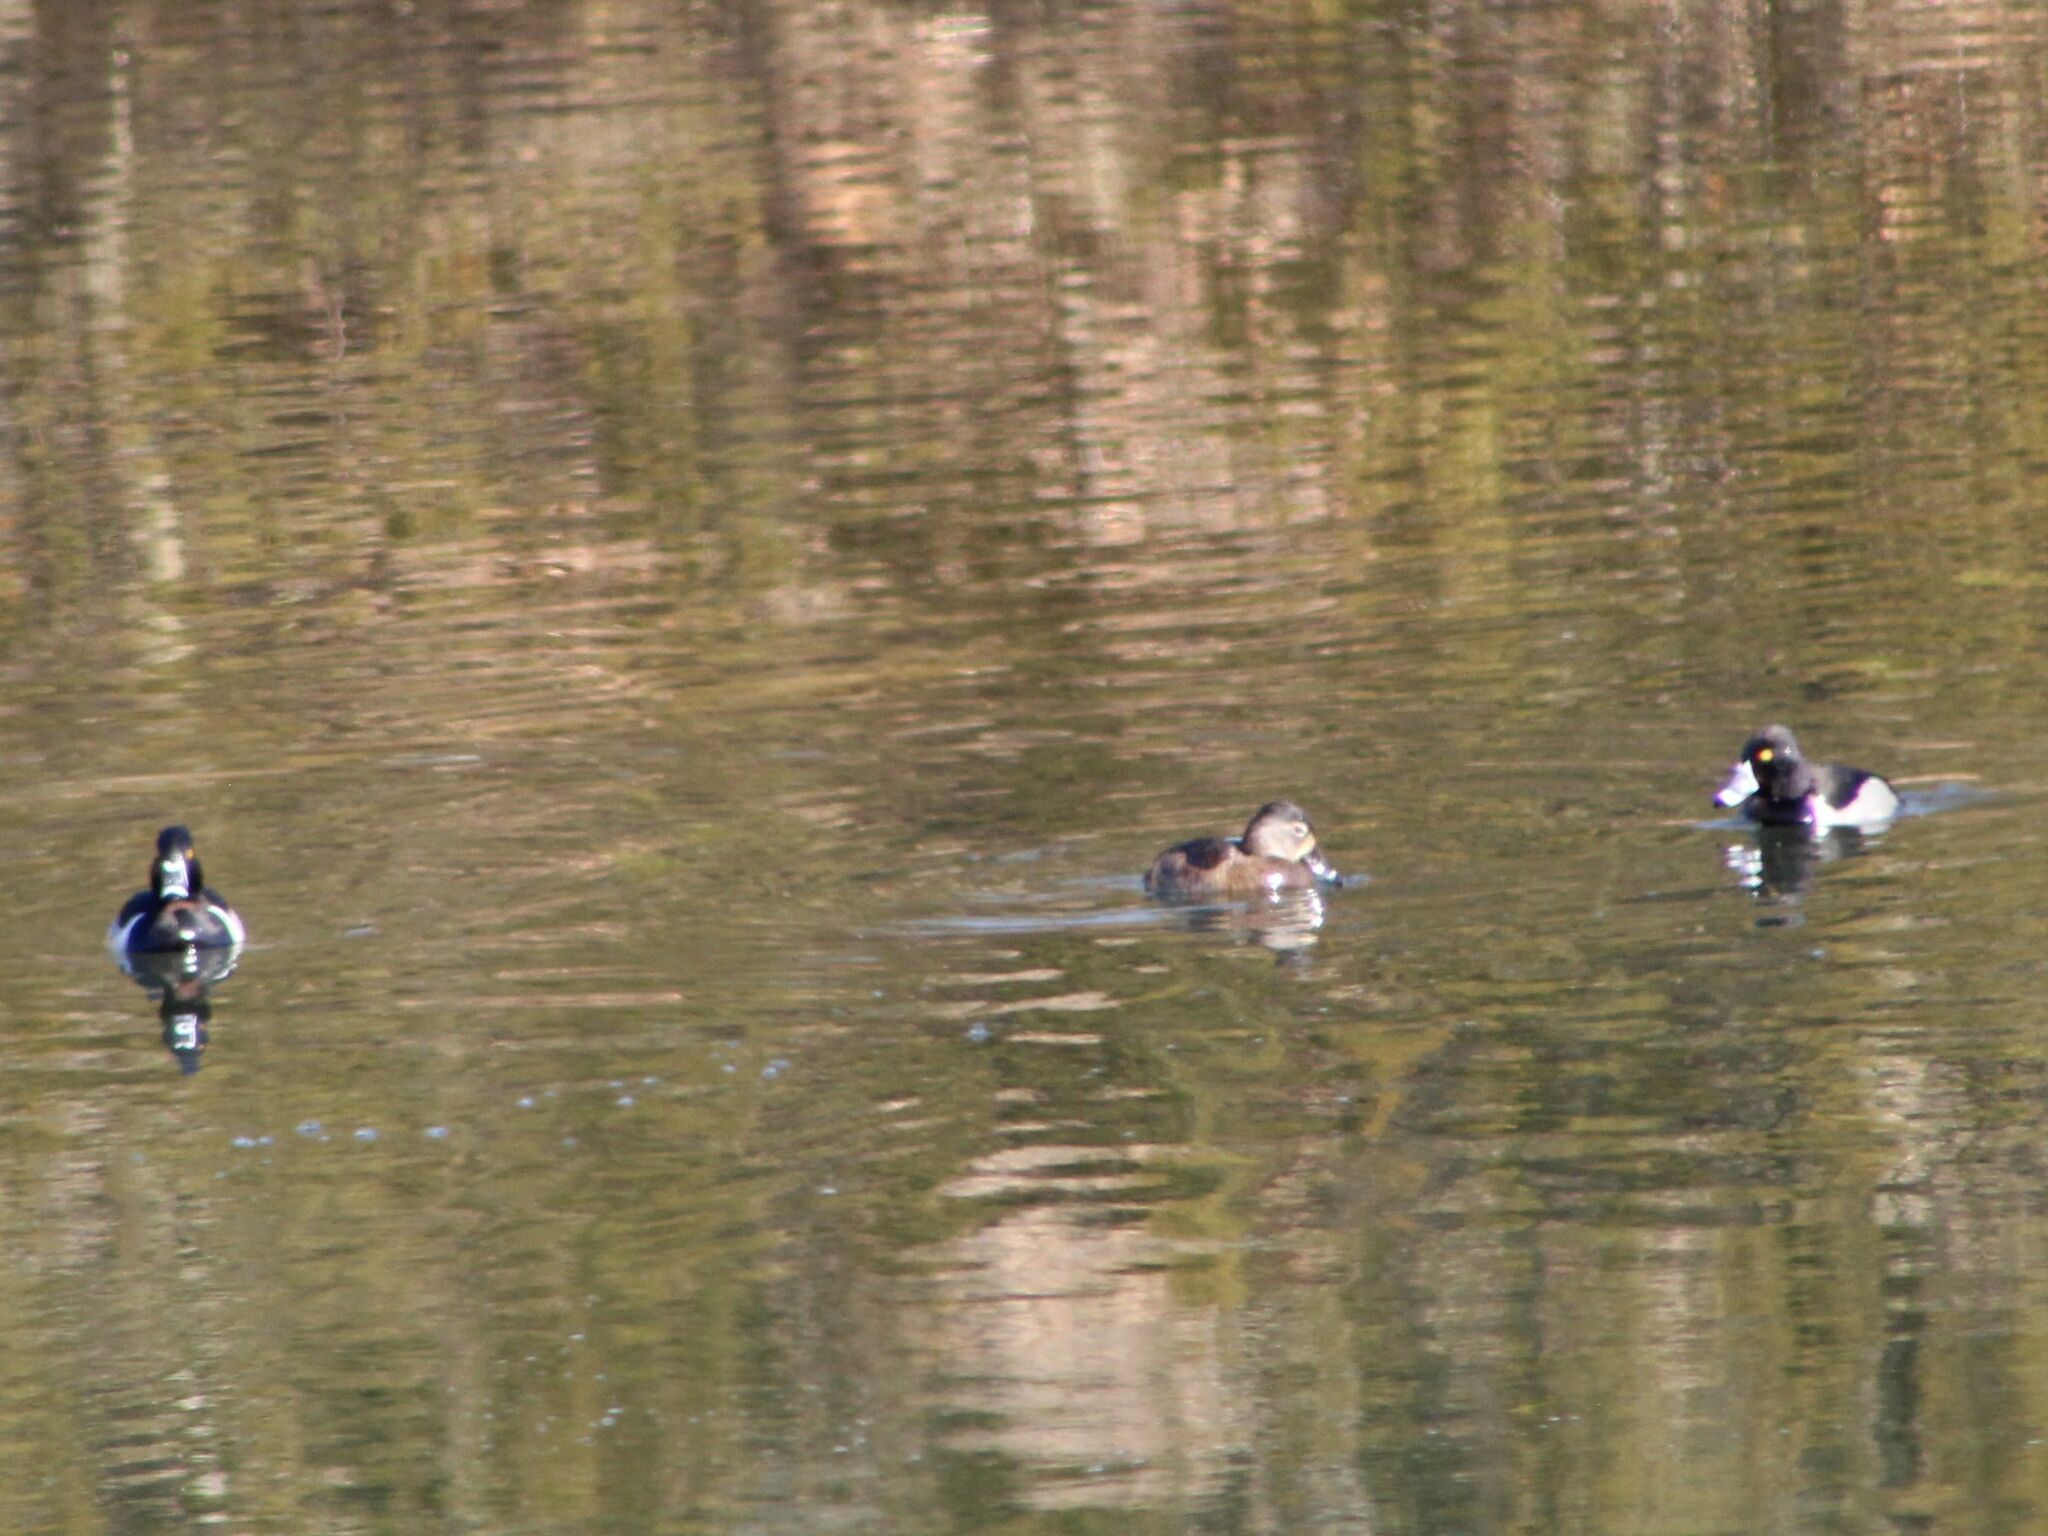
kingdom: Animalia
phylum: Chordata
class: Aves
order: Anseriformes
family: Anatidae
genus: Aythya
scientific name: Aythya collaris
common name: Ring-necked duck
